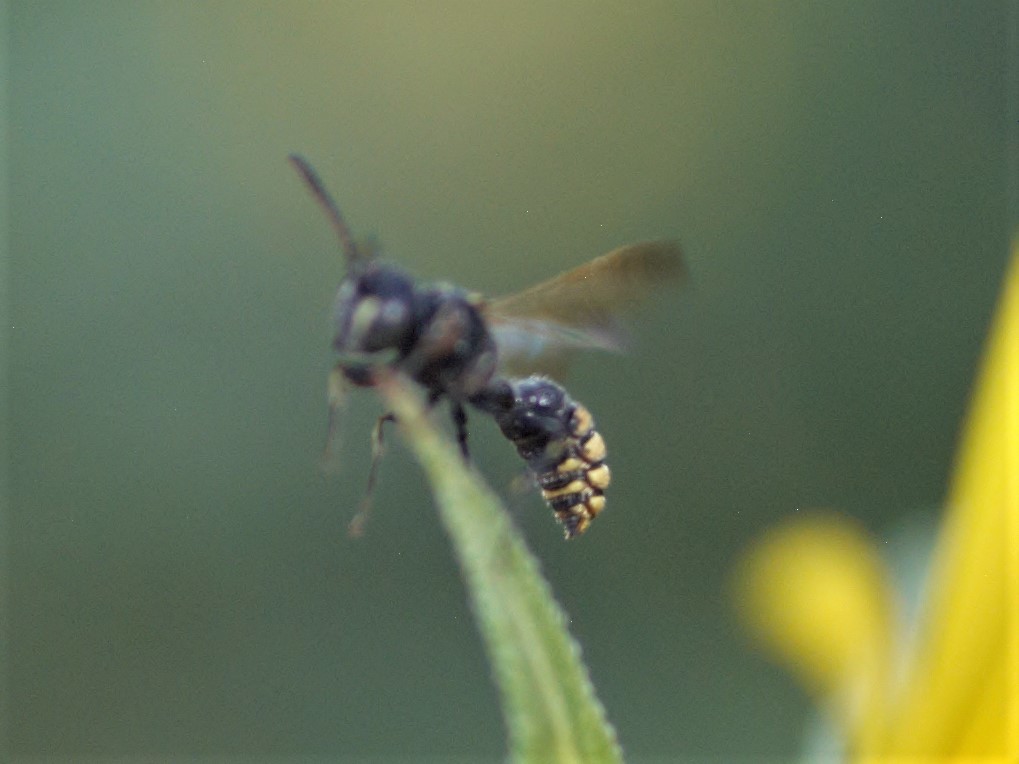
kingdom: Animalia
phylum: Arthropoda
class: Insecta
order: Hymenoptera
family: Crabronidae
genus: Cerceris
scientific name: Cerceris dilatata
